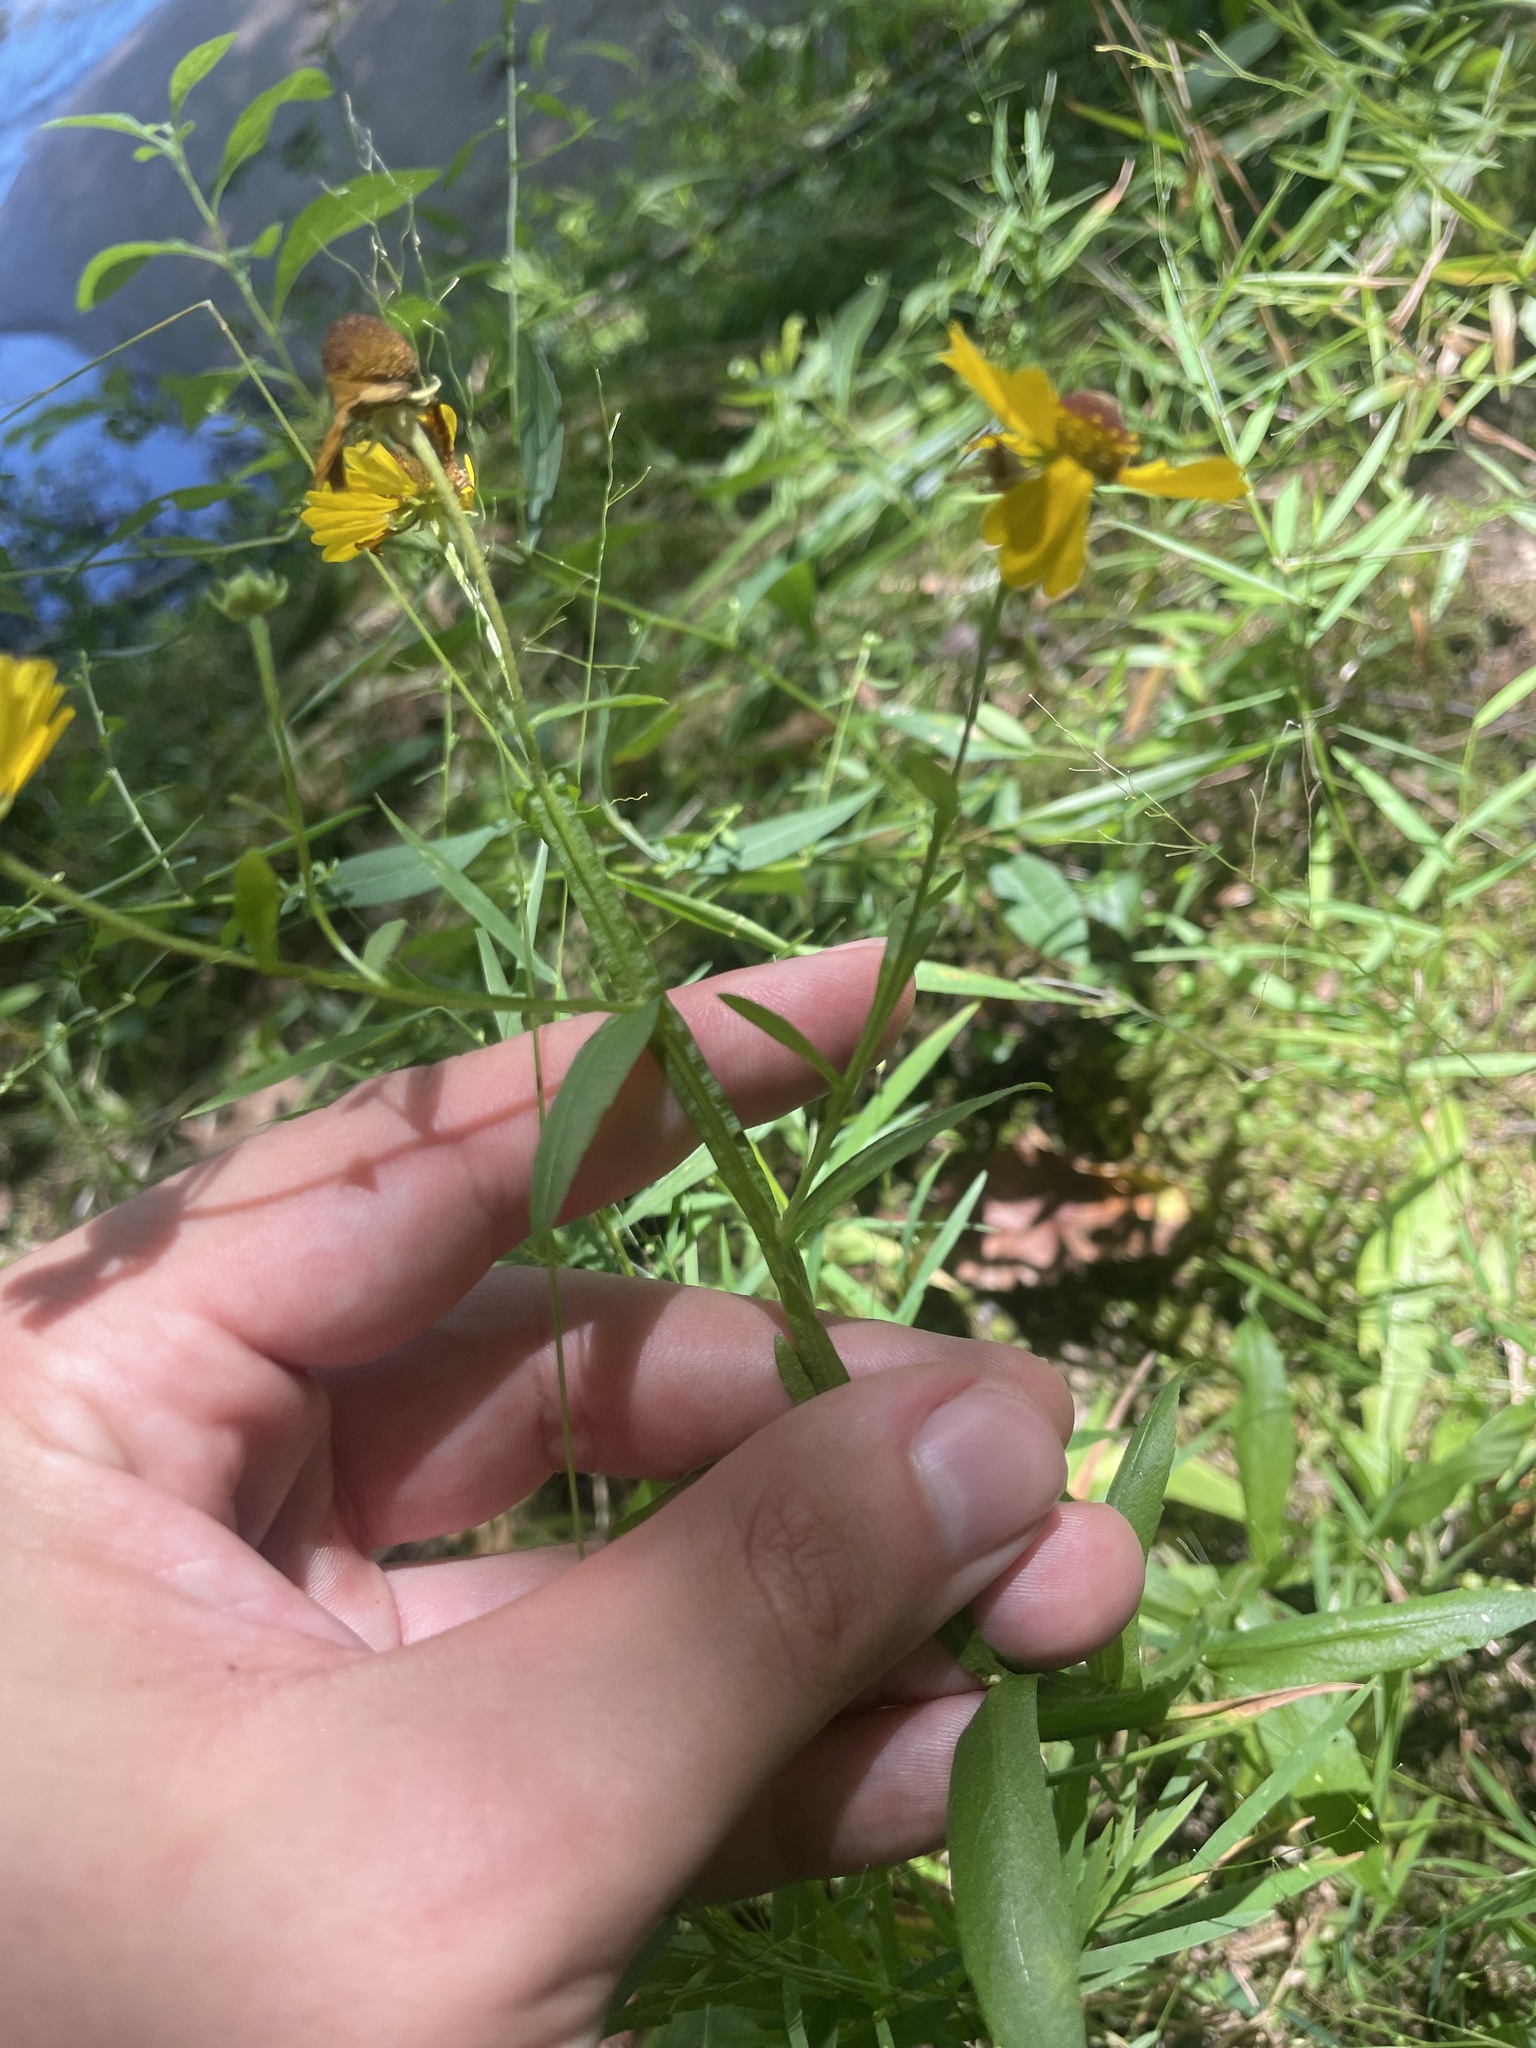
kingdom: Plantae
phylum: Tracheophyta
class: Magnoliopsida
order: Asterales
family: Asteraceae
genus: Helenium
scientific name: Helenium flexuosum
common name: Naked-flowered sneezeweed
